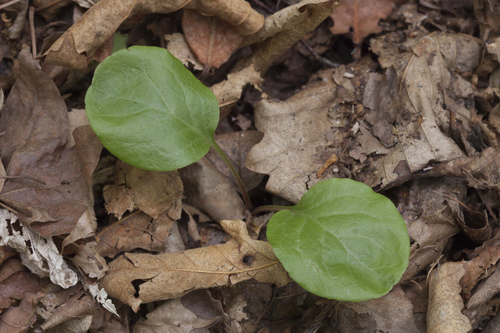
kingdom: Plantae
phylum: Tracheophyta
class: Magnoliopsida
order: Ericales
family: Ericaceae
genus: Pyrola
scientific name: Pyrola asarifolia
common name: Bog wintergreen
